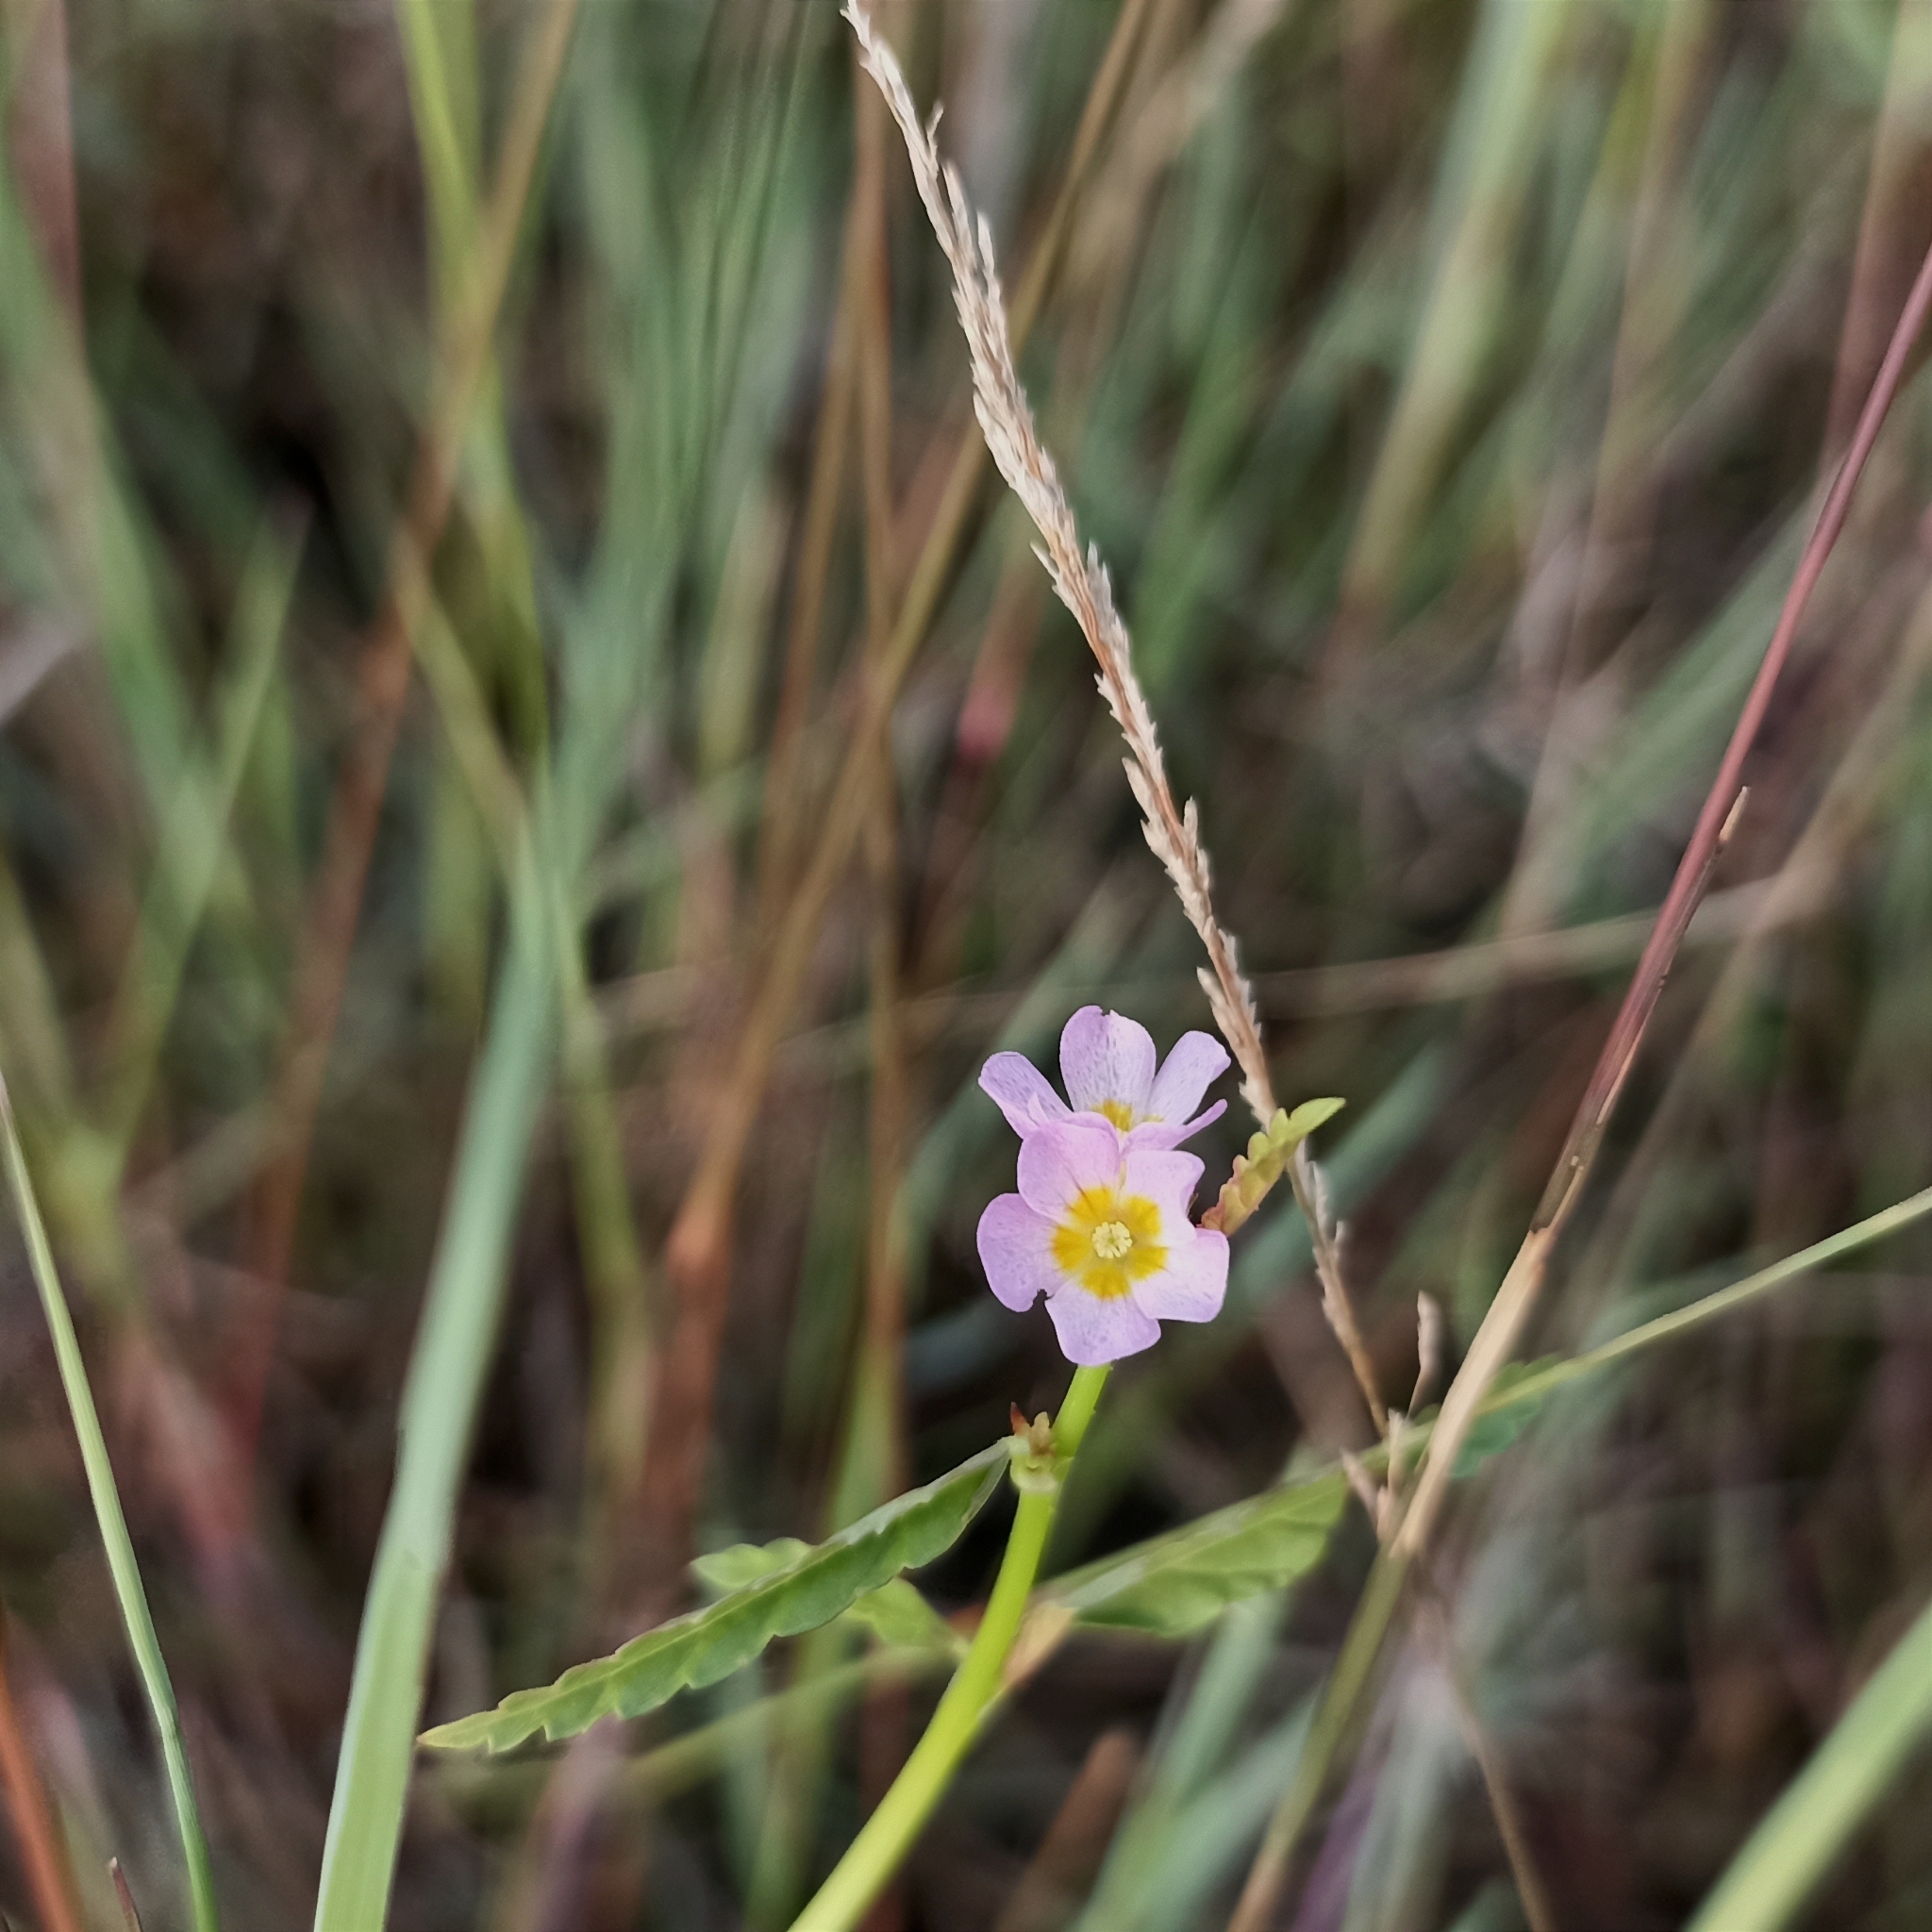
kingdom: Plantae
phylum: Tracheophyta
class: Magnoliopsida
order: Malvales
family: Malvaceae
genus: Melochia
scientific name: Melochia corchorifolia
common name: Chocolateweed
